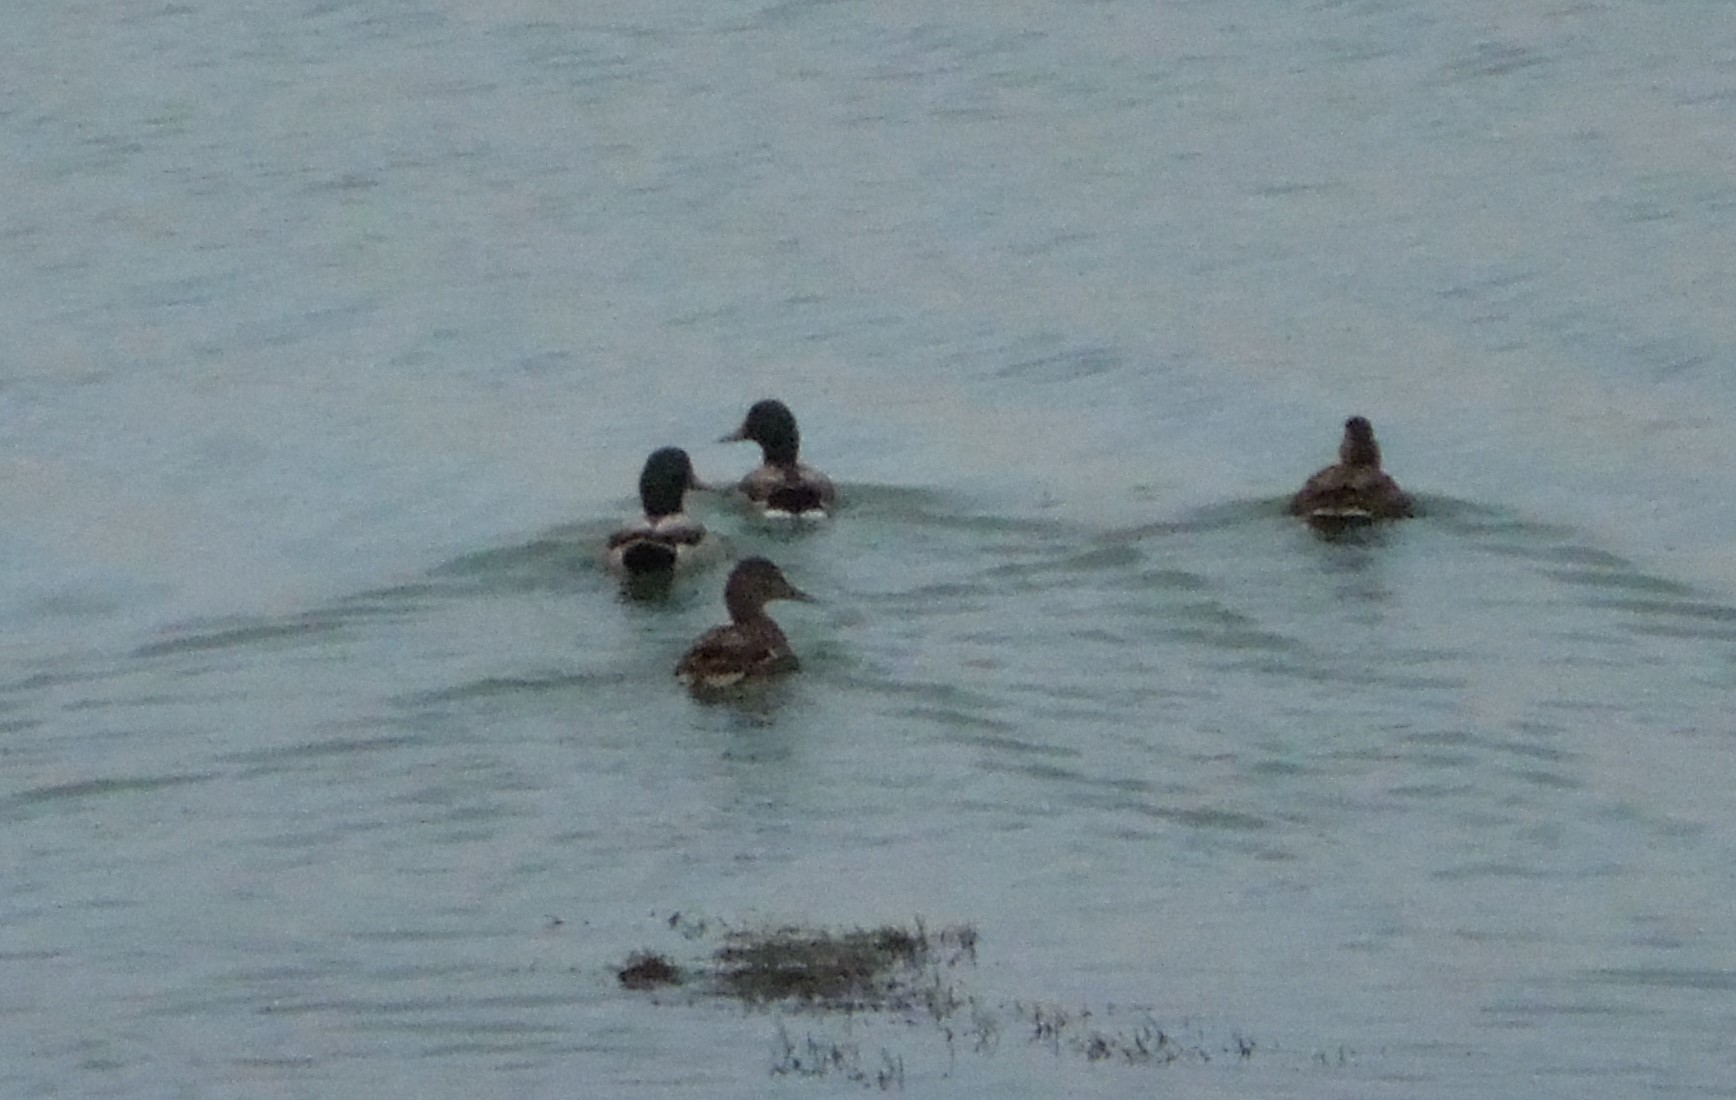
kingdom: Animalia
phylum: Chordata
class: Aves
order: Anseriformes
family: Anatidae
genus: Anas
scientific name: Anas platyrhynchos
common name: Mallard
